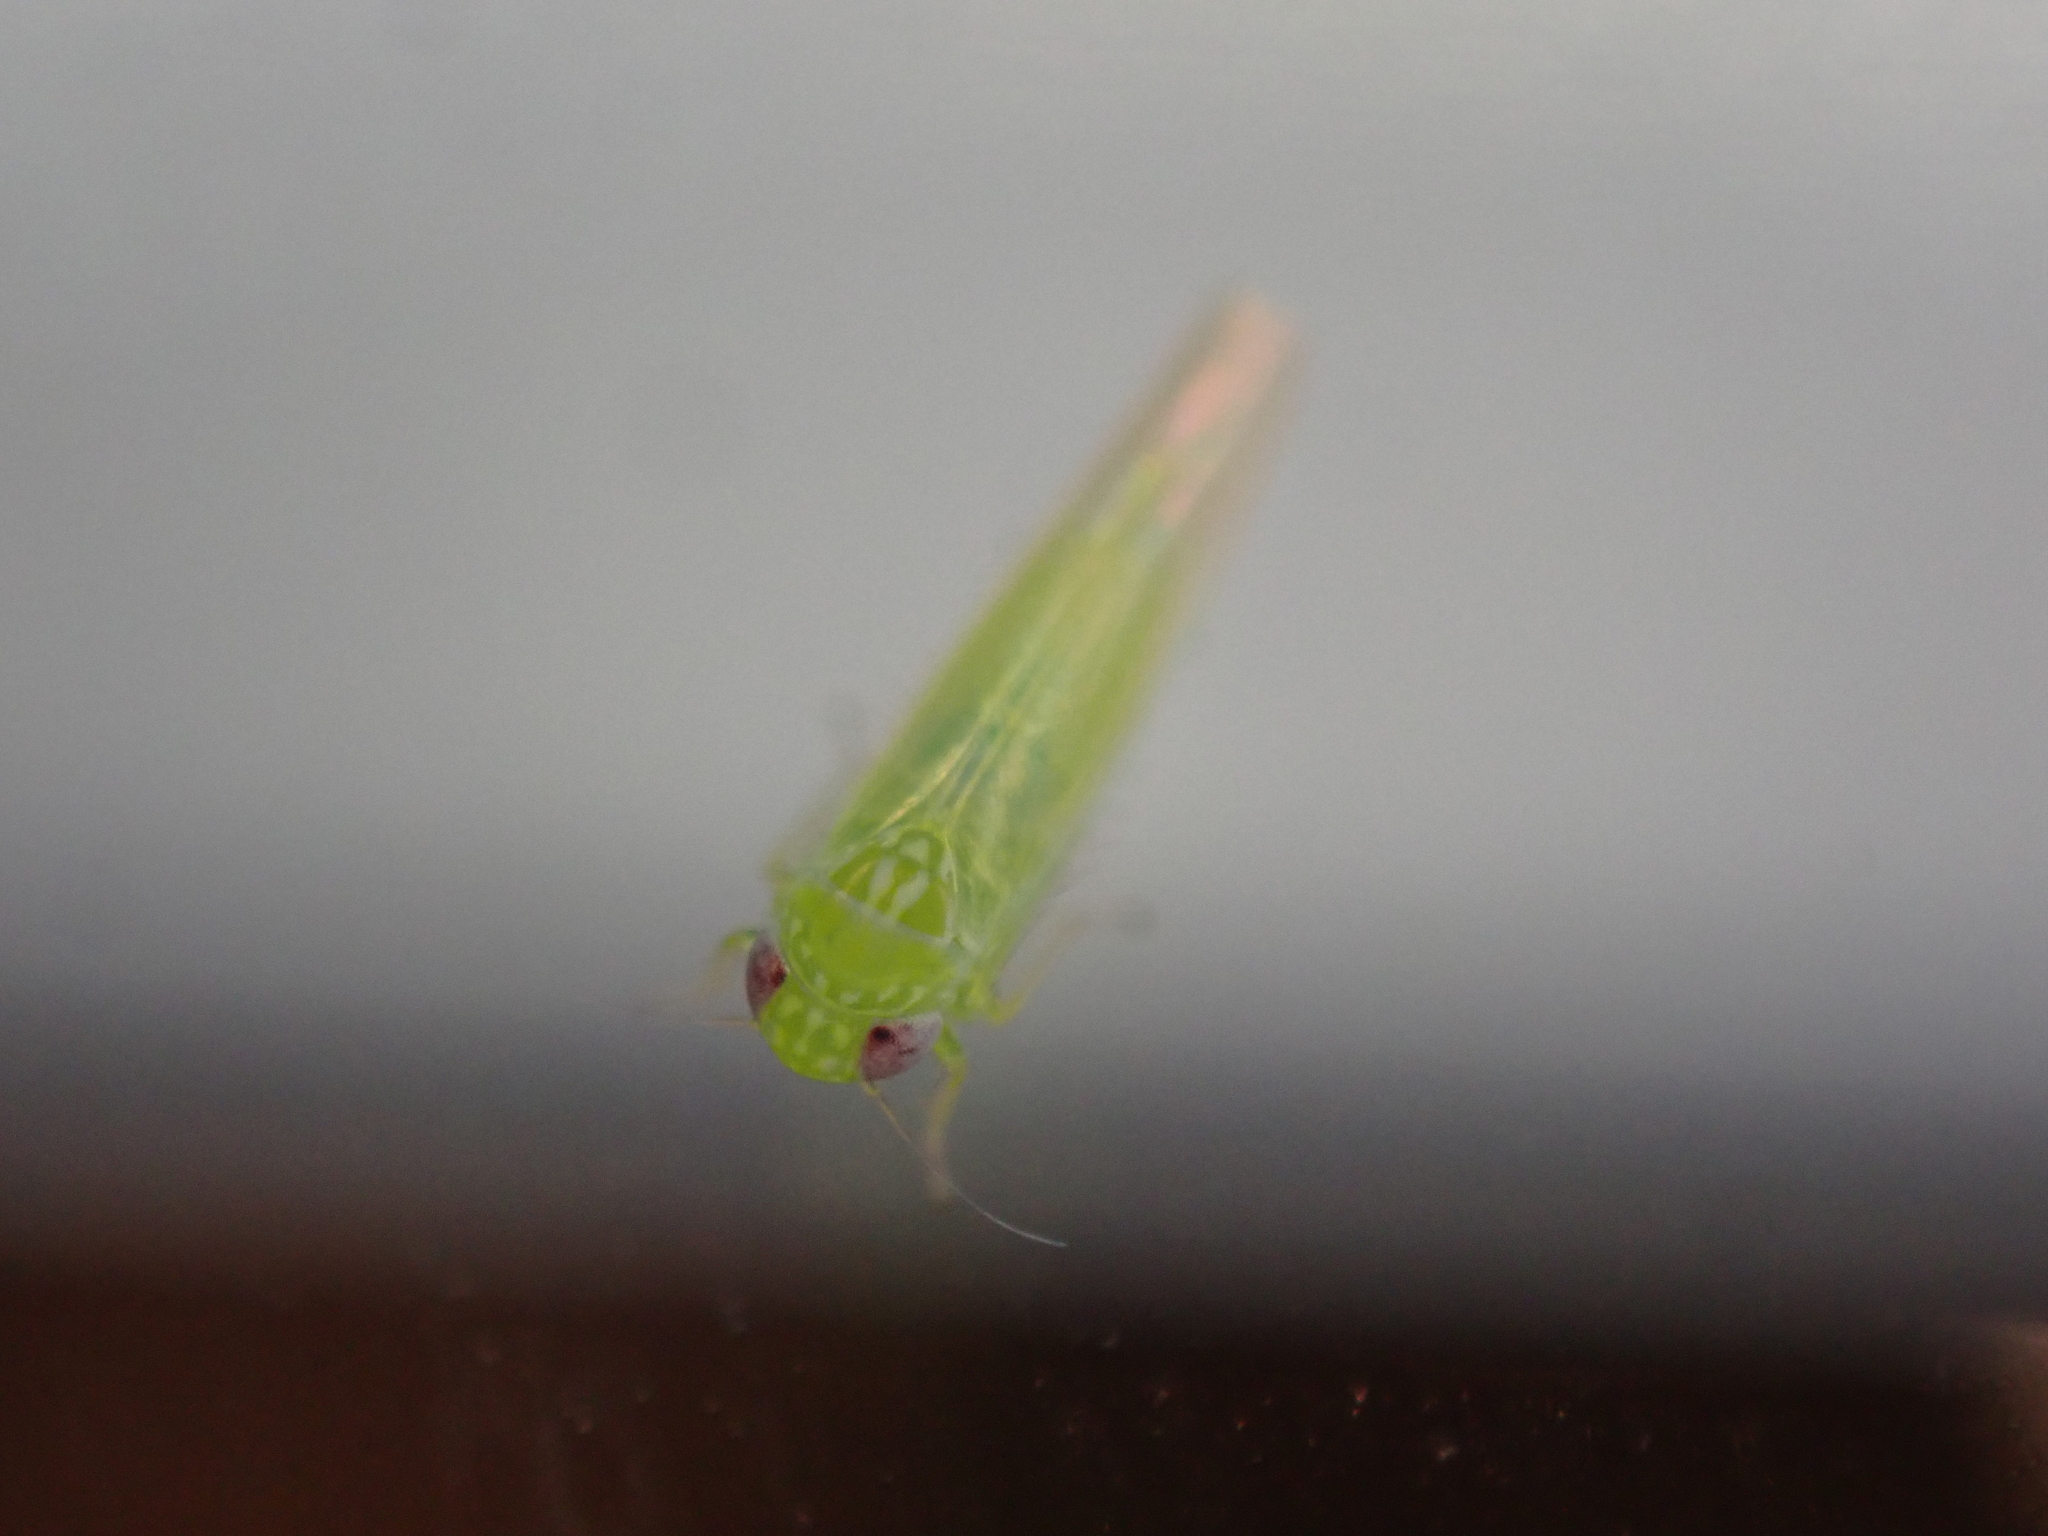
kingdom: Animalia
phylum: Arthropoda
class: Insecta
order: Hemiptera
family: Cicadellidae
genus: Empoasca
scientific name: Empoasca fabae
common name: Potato leafhopper
